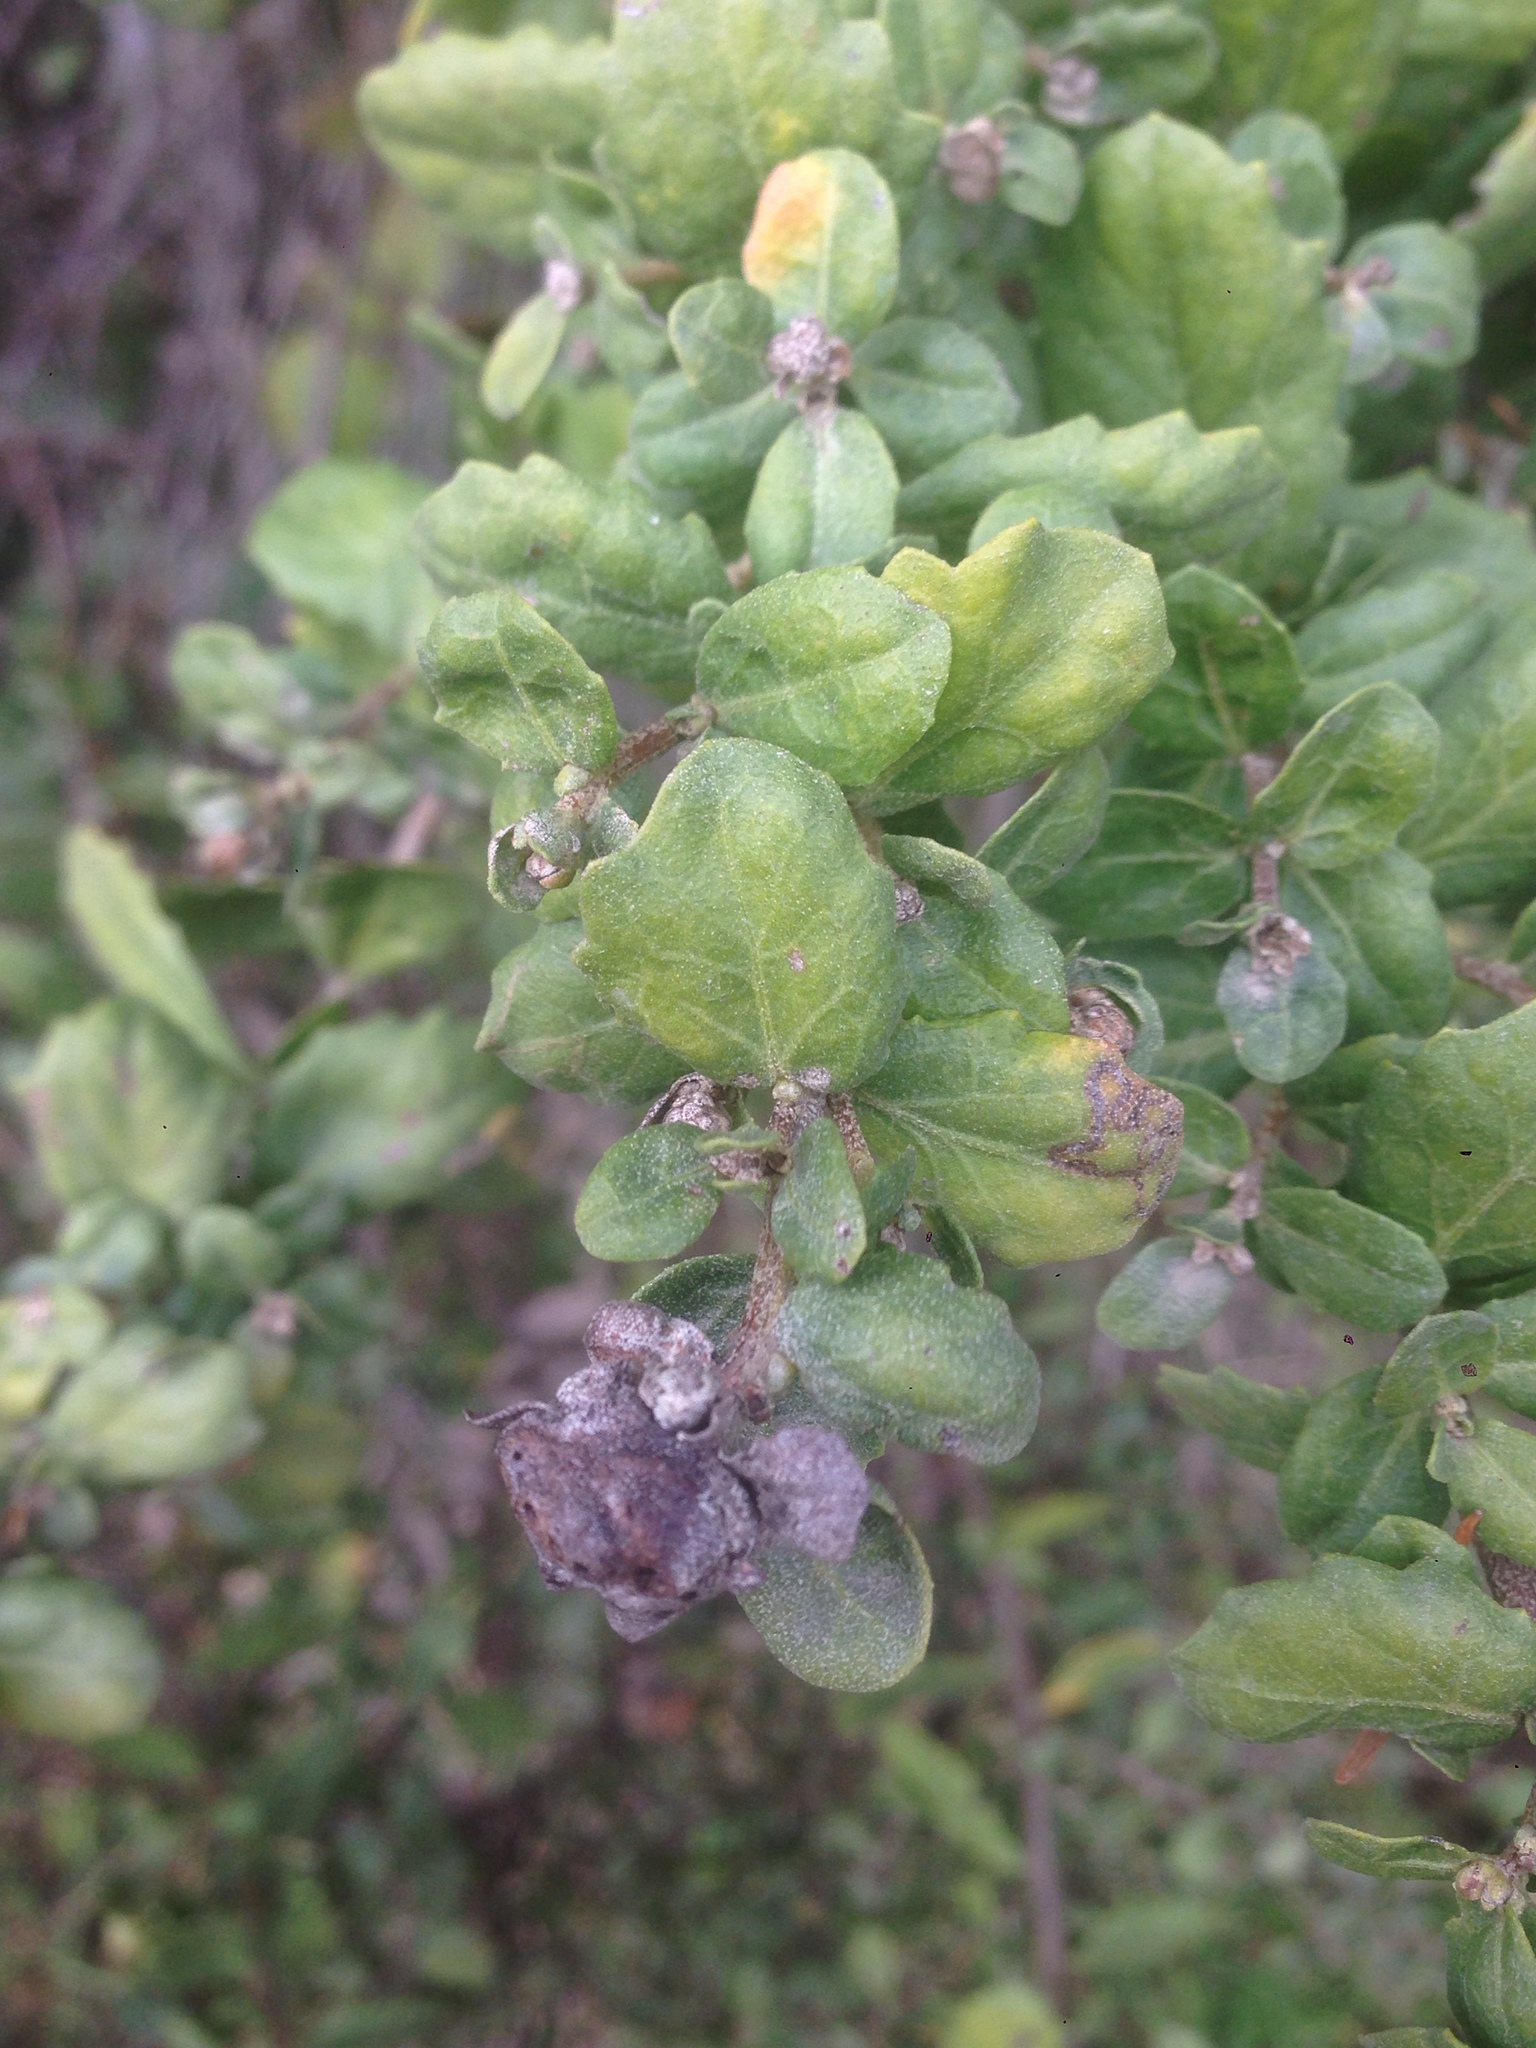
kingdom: Plantae
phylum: Tracheophyta
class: Magnoliopsida
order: Asterales
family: Asteraceae
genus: Baccharis
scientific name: Baccharis pilularis
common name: Coyotebrush
